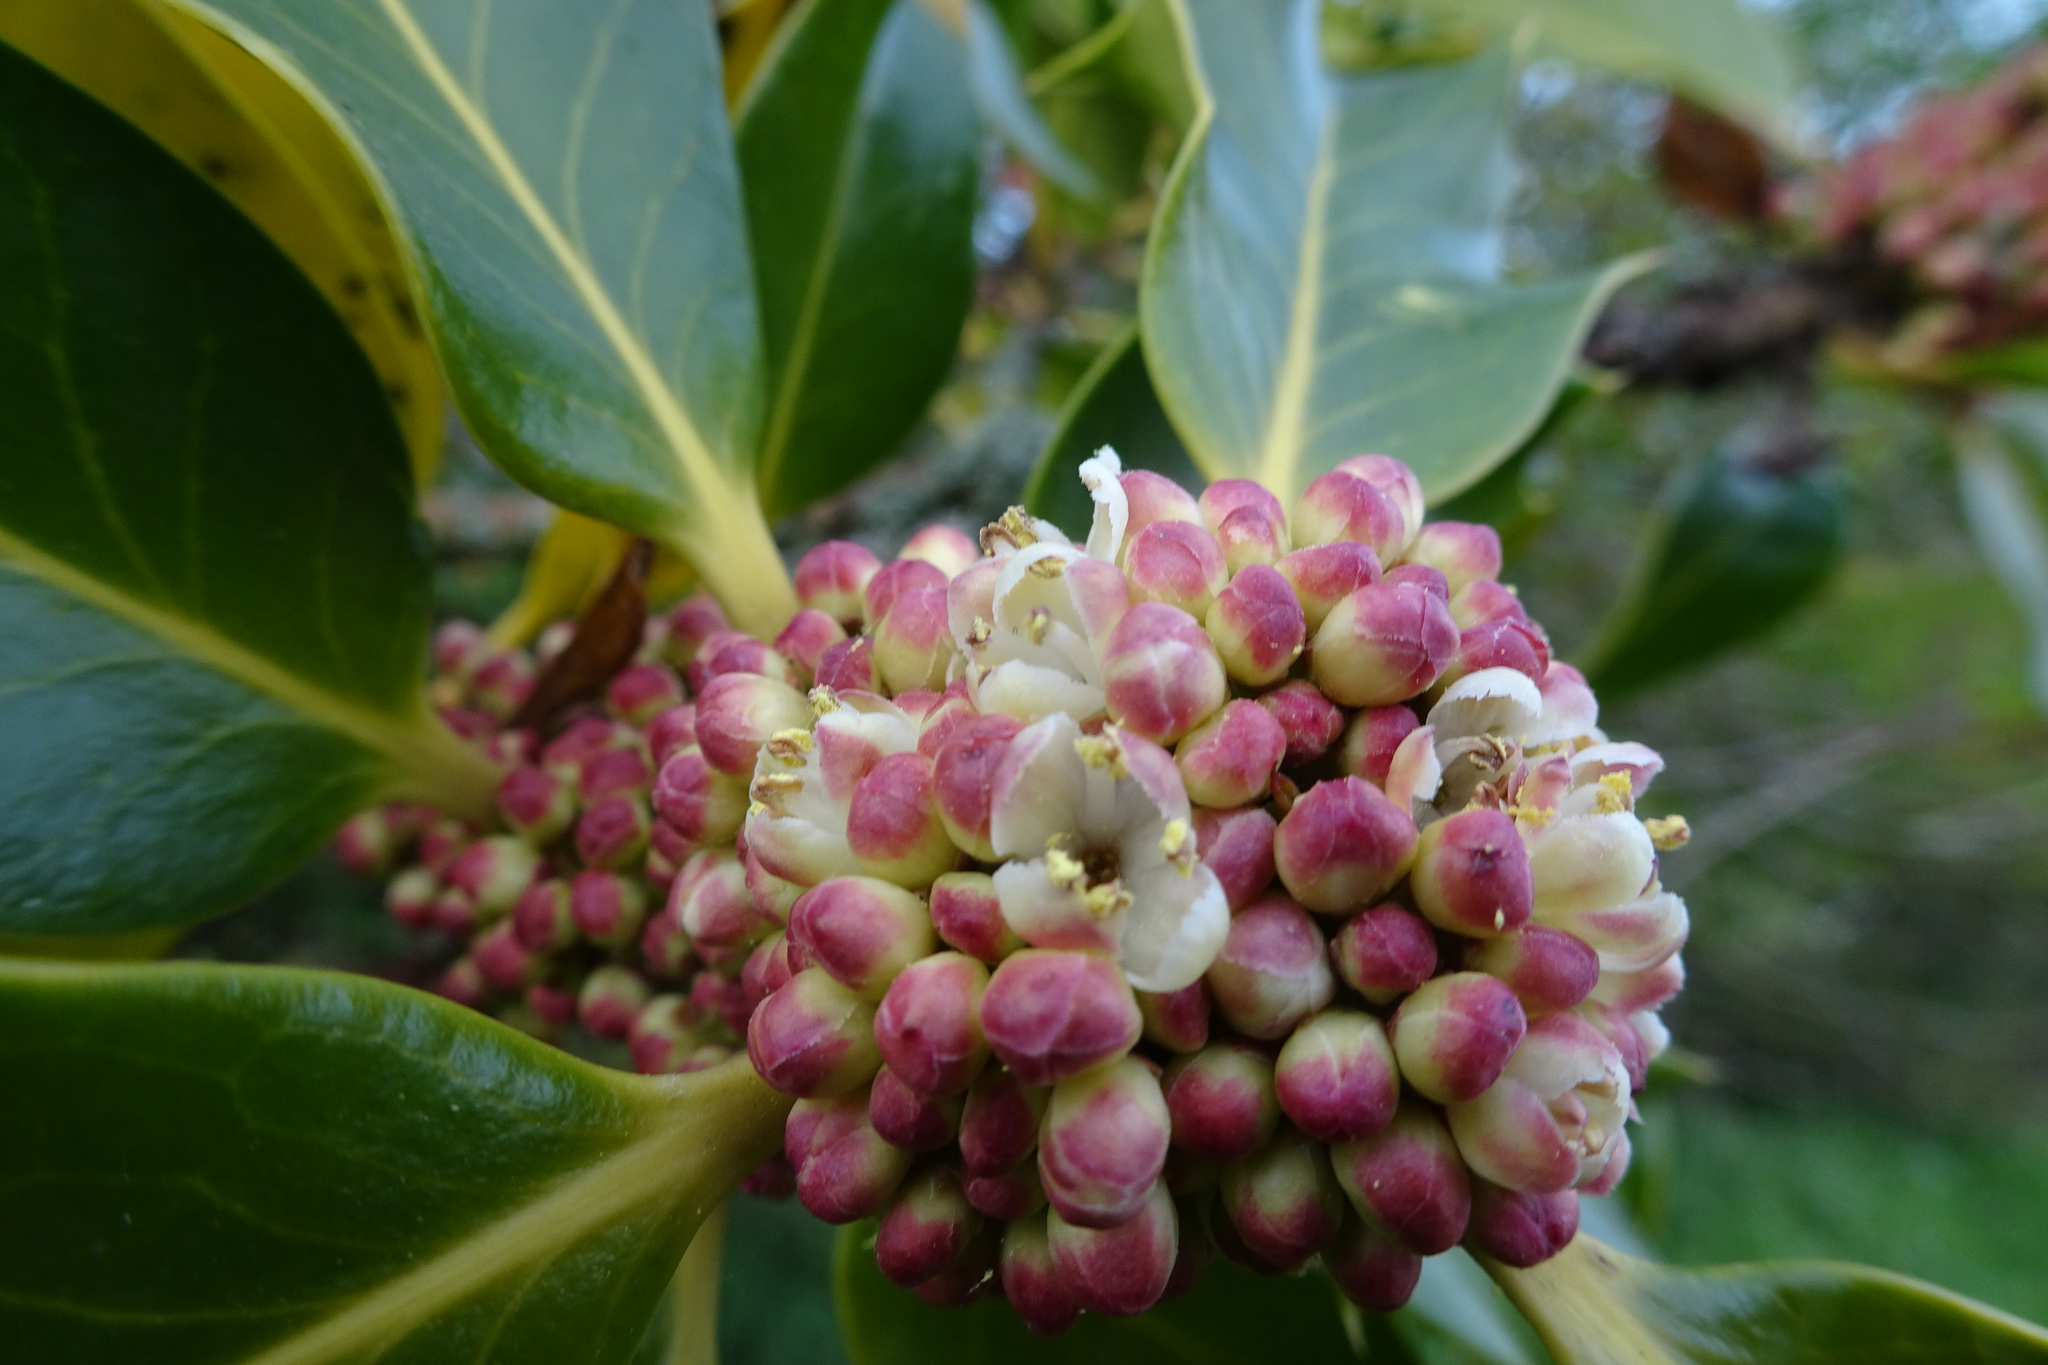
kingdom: Plantae
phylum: Tracheophyta
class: Magnoliopsida
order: Aquifoliales
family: Aquifoliaceae
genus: Ilex
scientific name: Ilex aquifolium
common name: English holly
